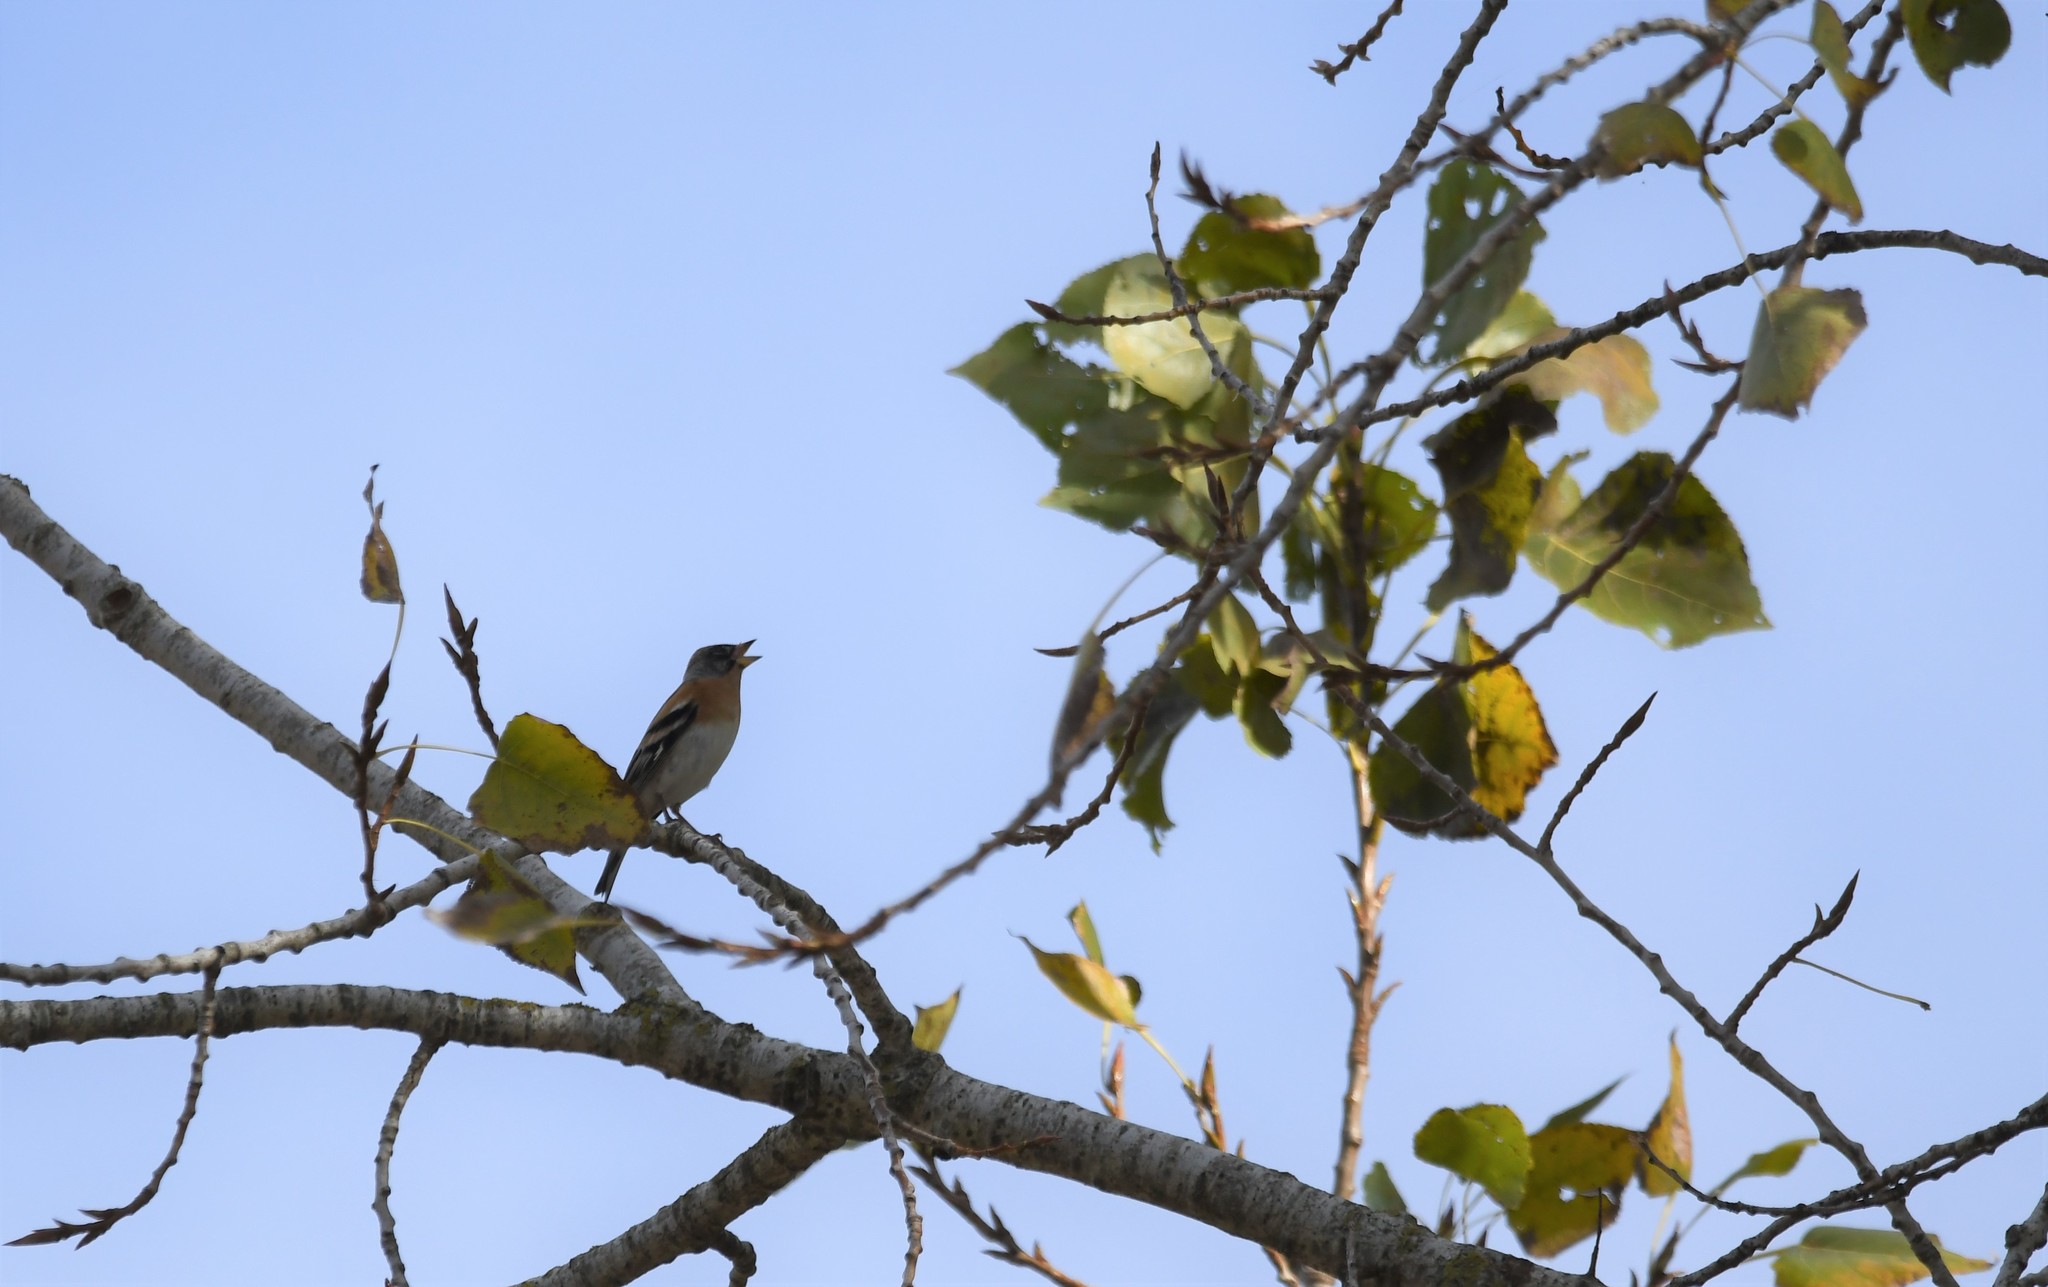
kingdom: Animalia
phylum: Chordata
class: Aves
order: Passeriformes
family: Fringillidae
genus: Fringilla
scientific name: Fringilla montifringilla
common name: Brambling
